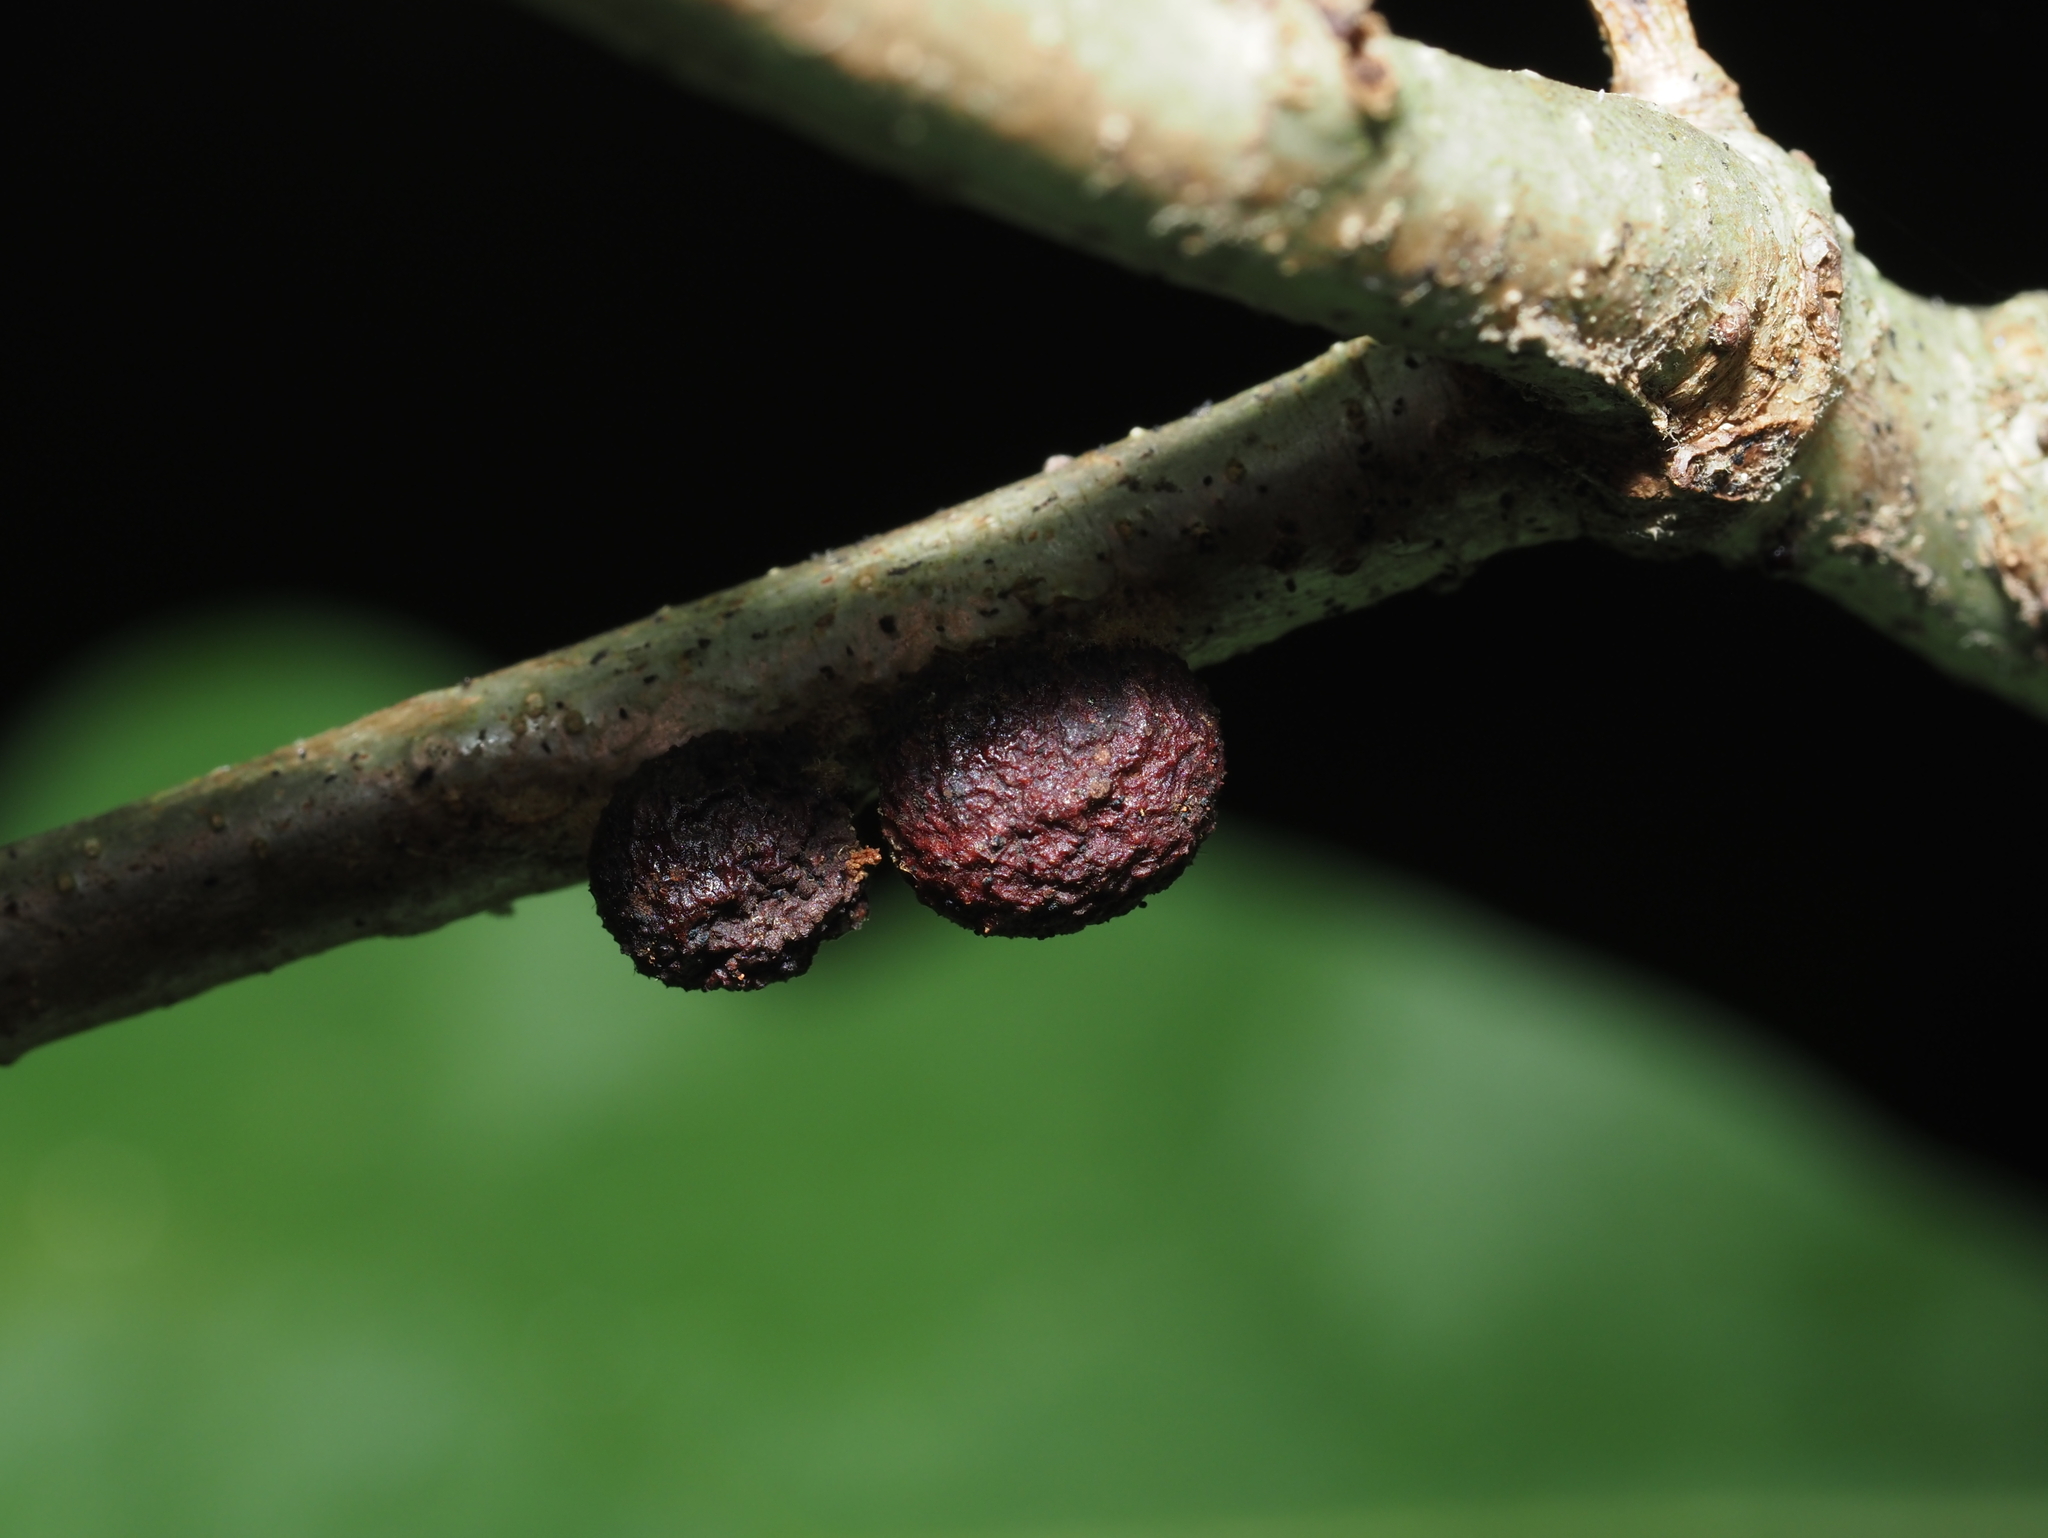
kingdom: Animalia
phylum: Arthropoda
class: Insecta
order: Hymenoptera
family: Cynipidae
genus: Disholcaspis
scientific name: Disholcaspis
